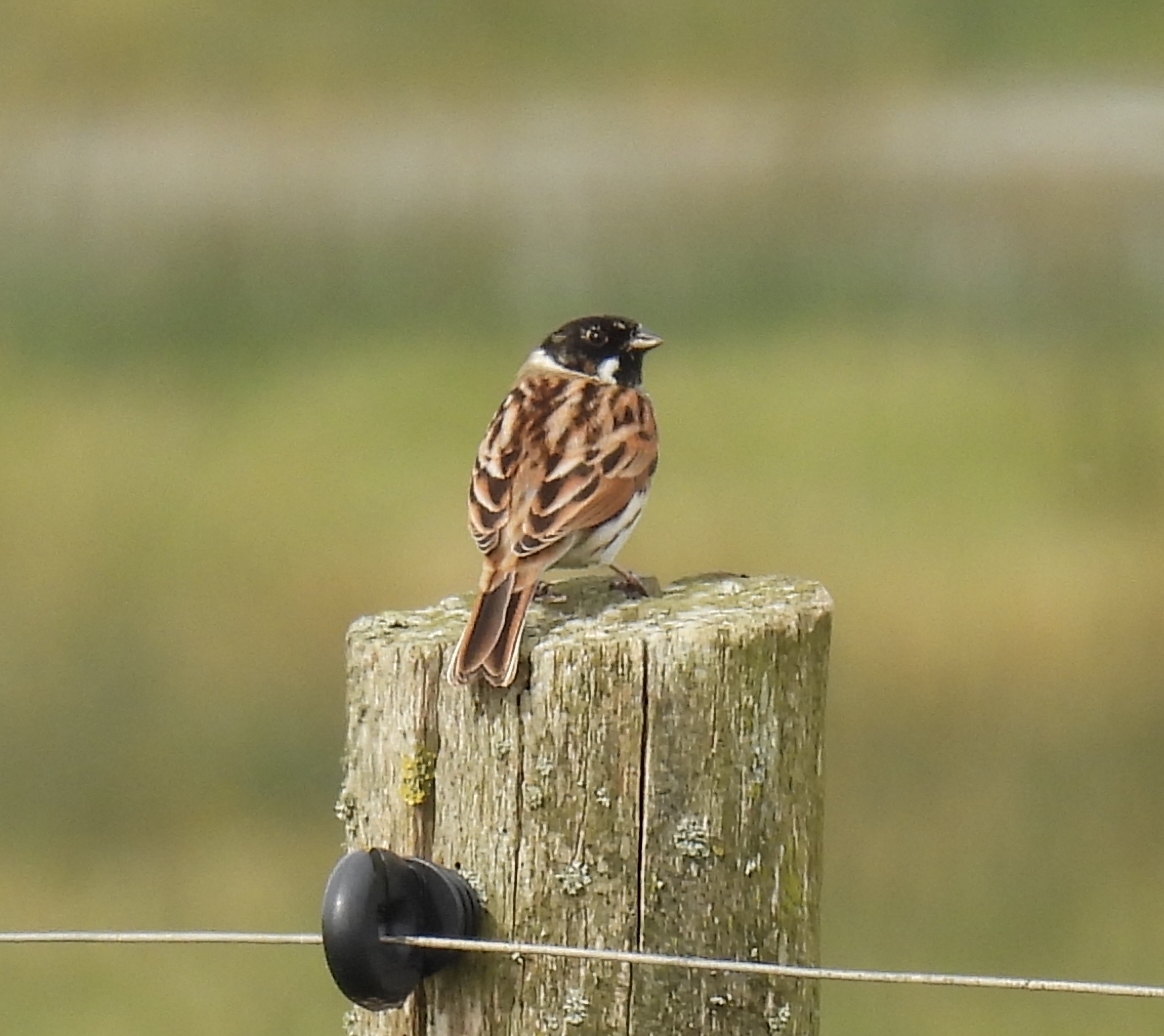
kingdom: Animalia
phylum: Chordata
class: Aves
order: Passeriformes
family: Emberizidae
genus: Emberiza
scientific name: Emberiza schoeniclus
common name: Reed bunting
